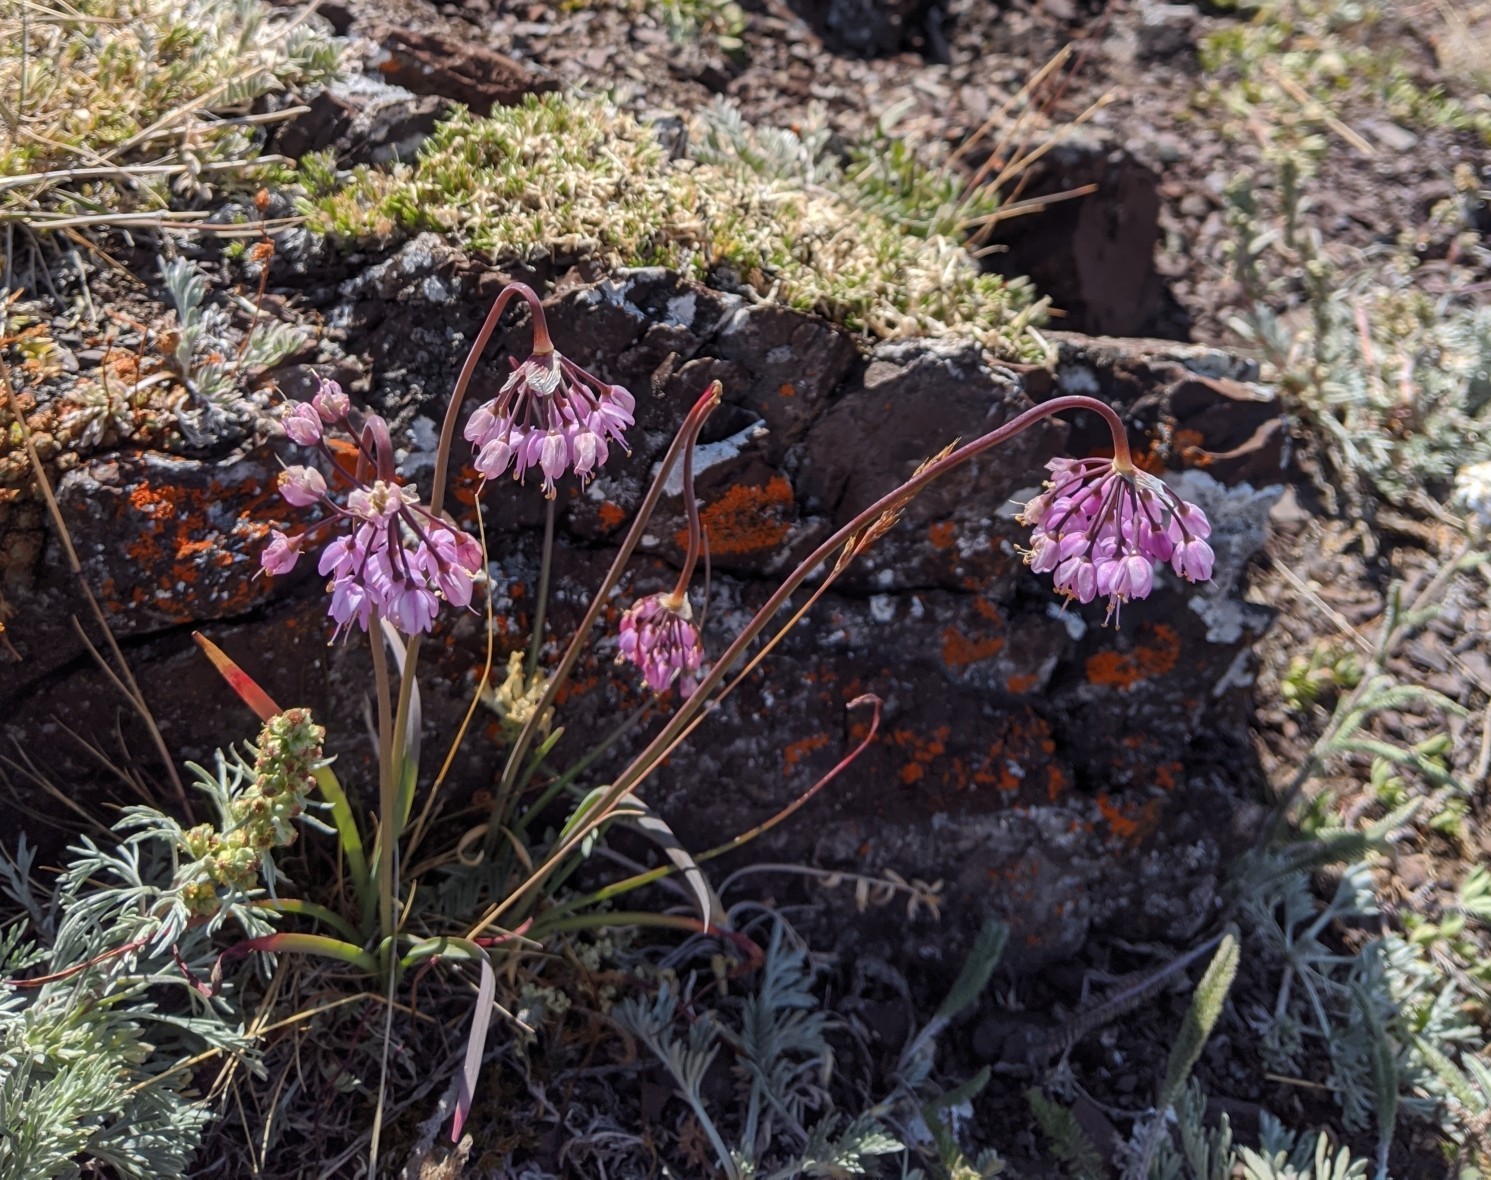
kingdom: Plantae
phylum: Tracheophyta
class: Liliopsida
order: Asparagales
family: Amaryllidaceae
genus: Allium
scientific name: Allium cernuum
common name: Nodding onion
